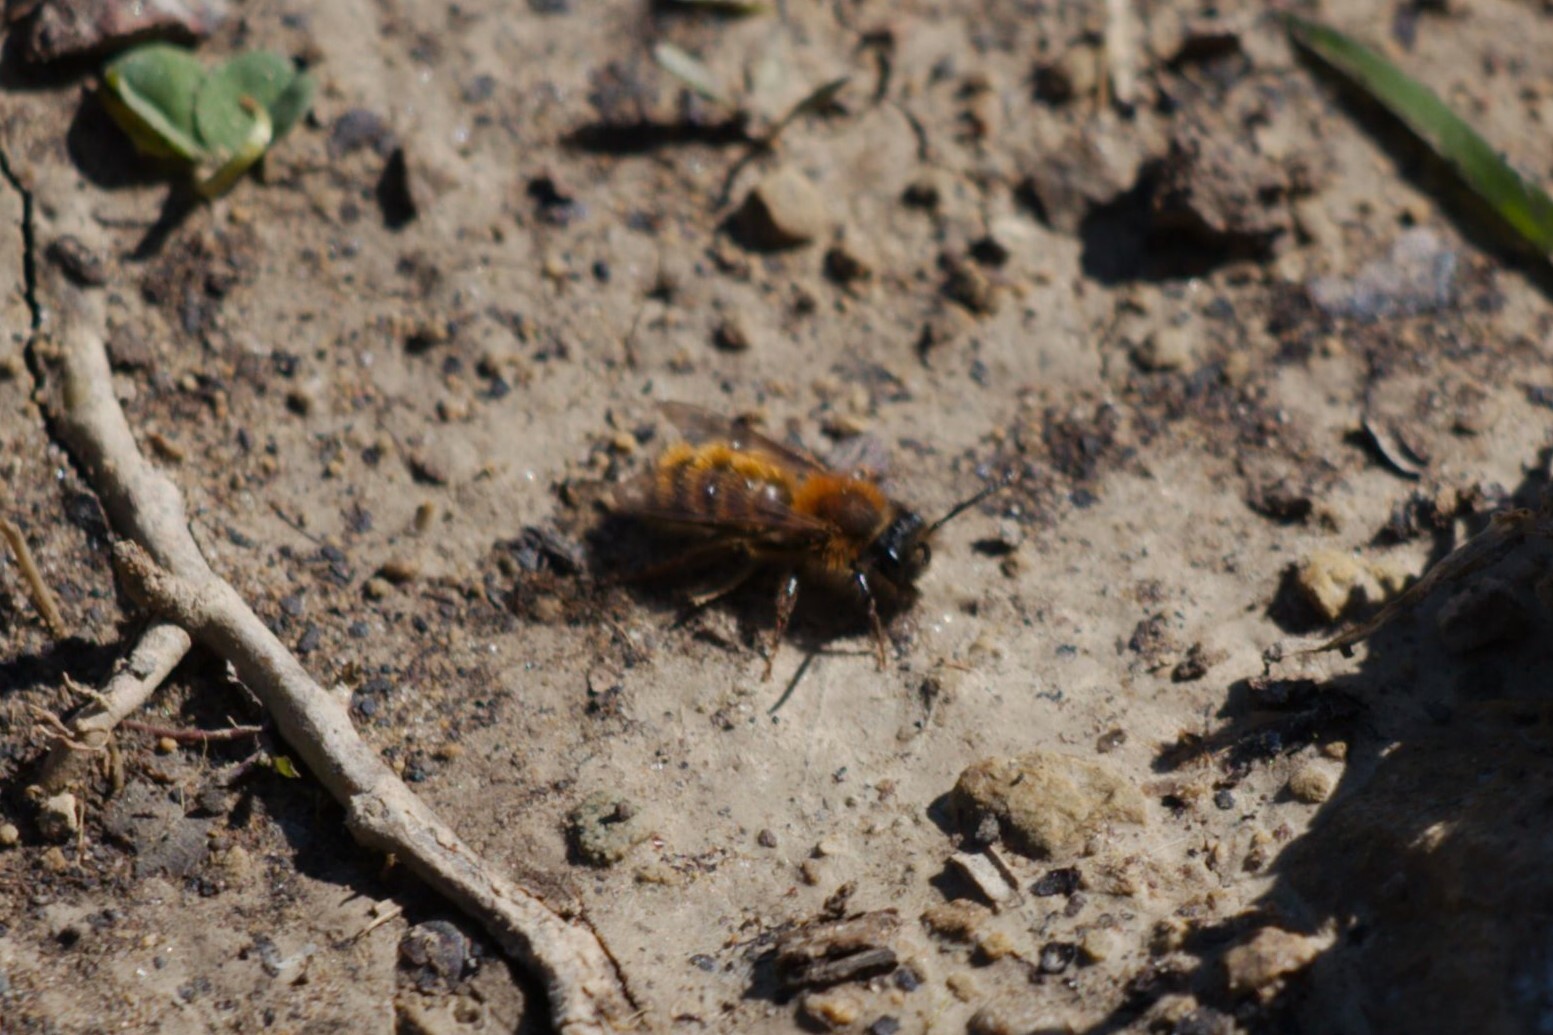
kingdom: Animalia
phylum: Arthropoda
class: Insecta
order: Hymenoptera
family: Andrenidae
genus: Andrena
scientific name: Andrena fulva
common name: Tawny mining bee
